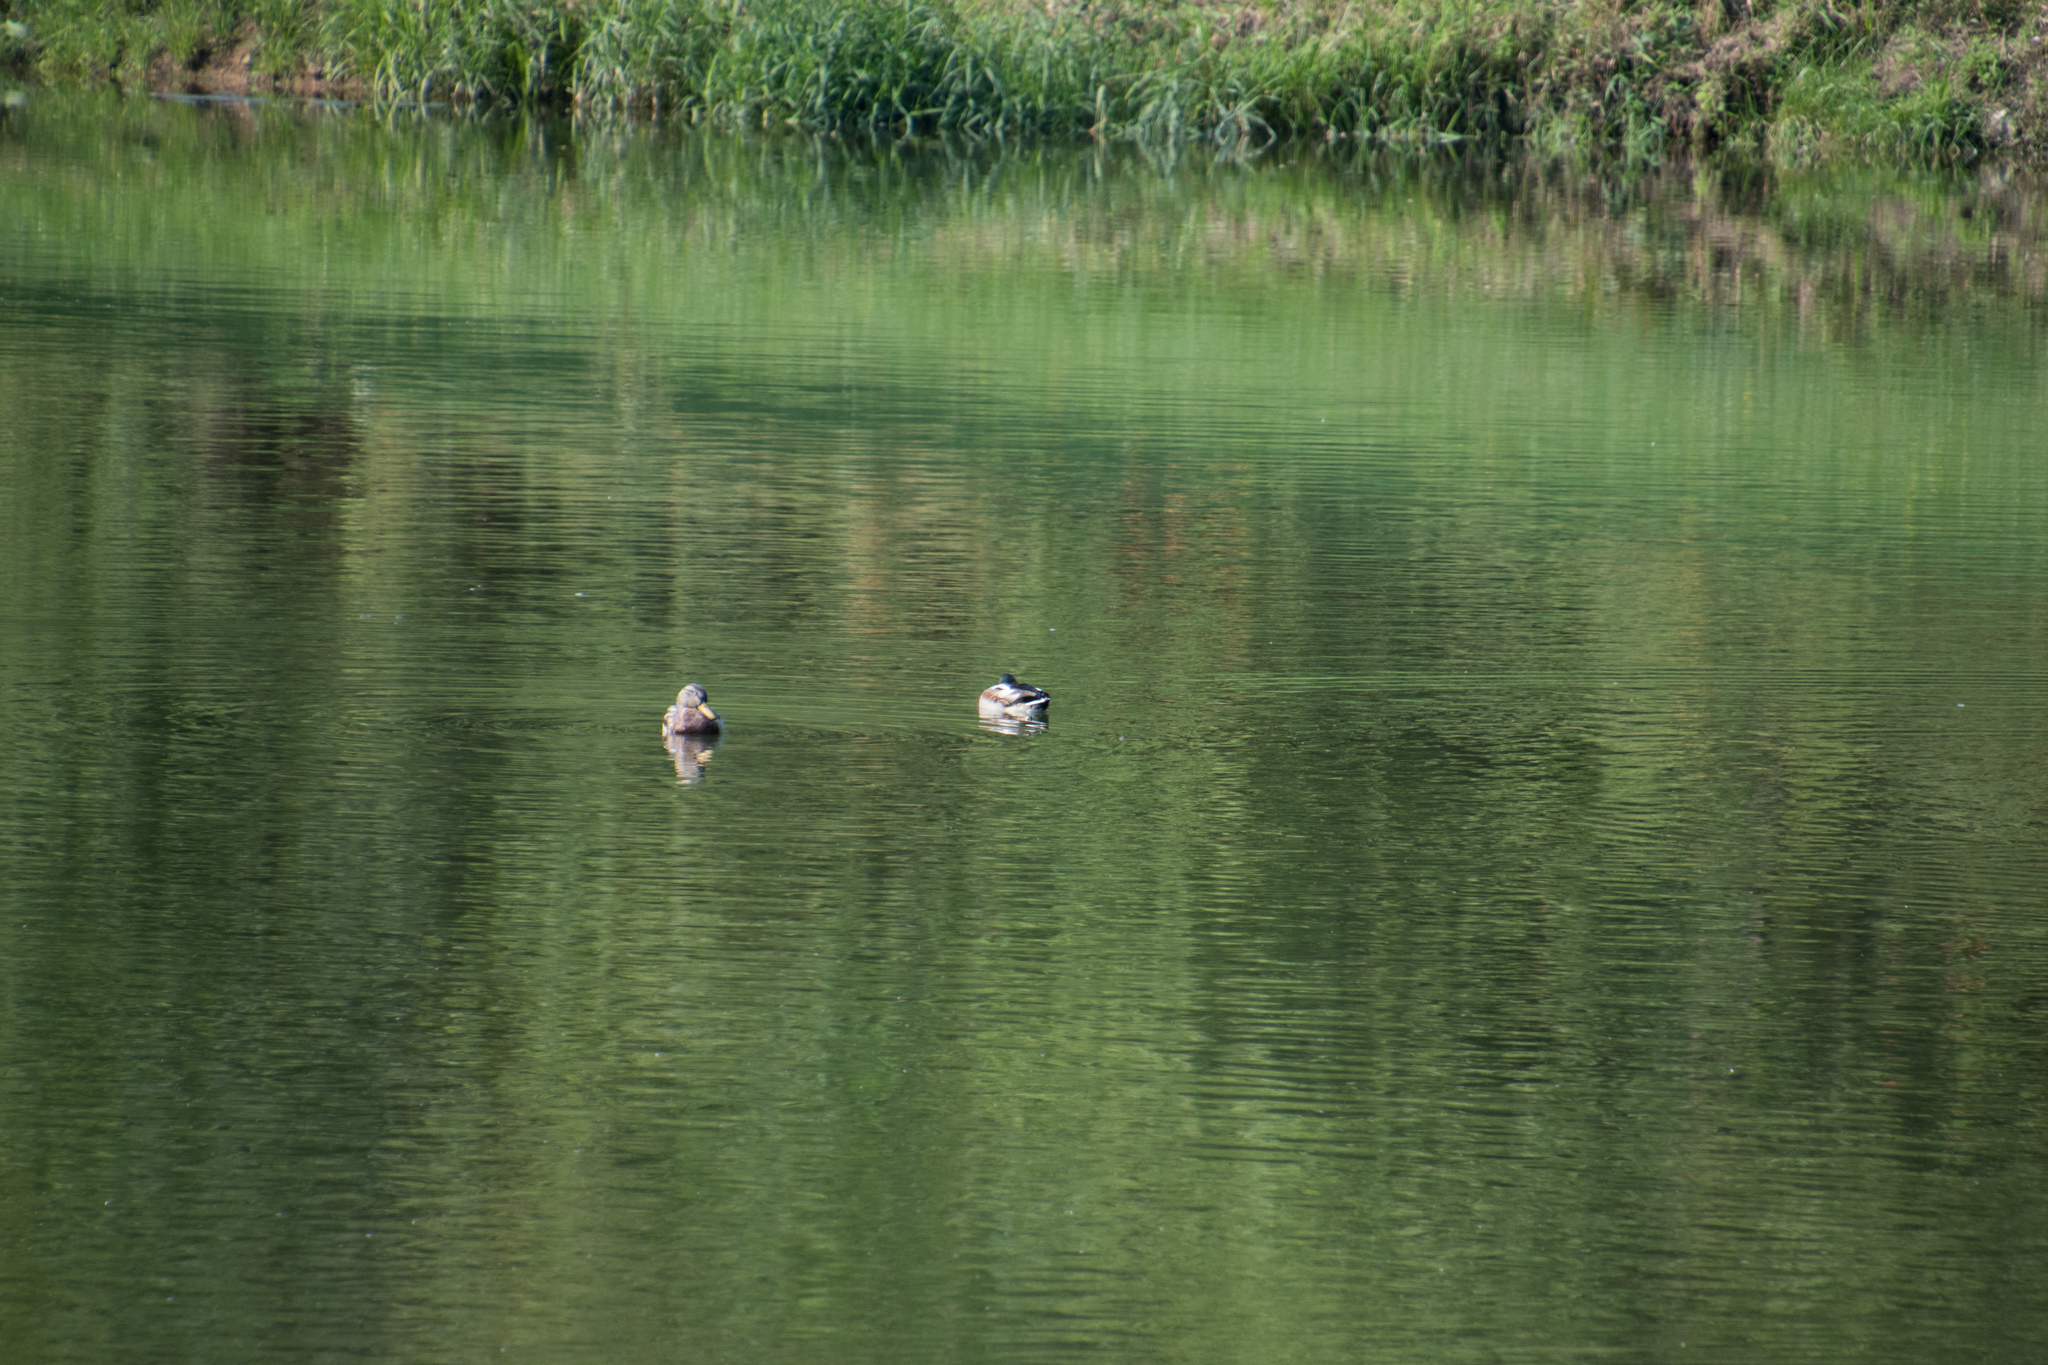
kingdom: Animalia
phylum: Chordata
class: Aves
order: Anseriformes
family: Anatidae
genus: Anas
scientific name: Anas platyrhynchos
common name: Mallard
